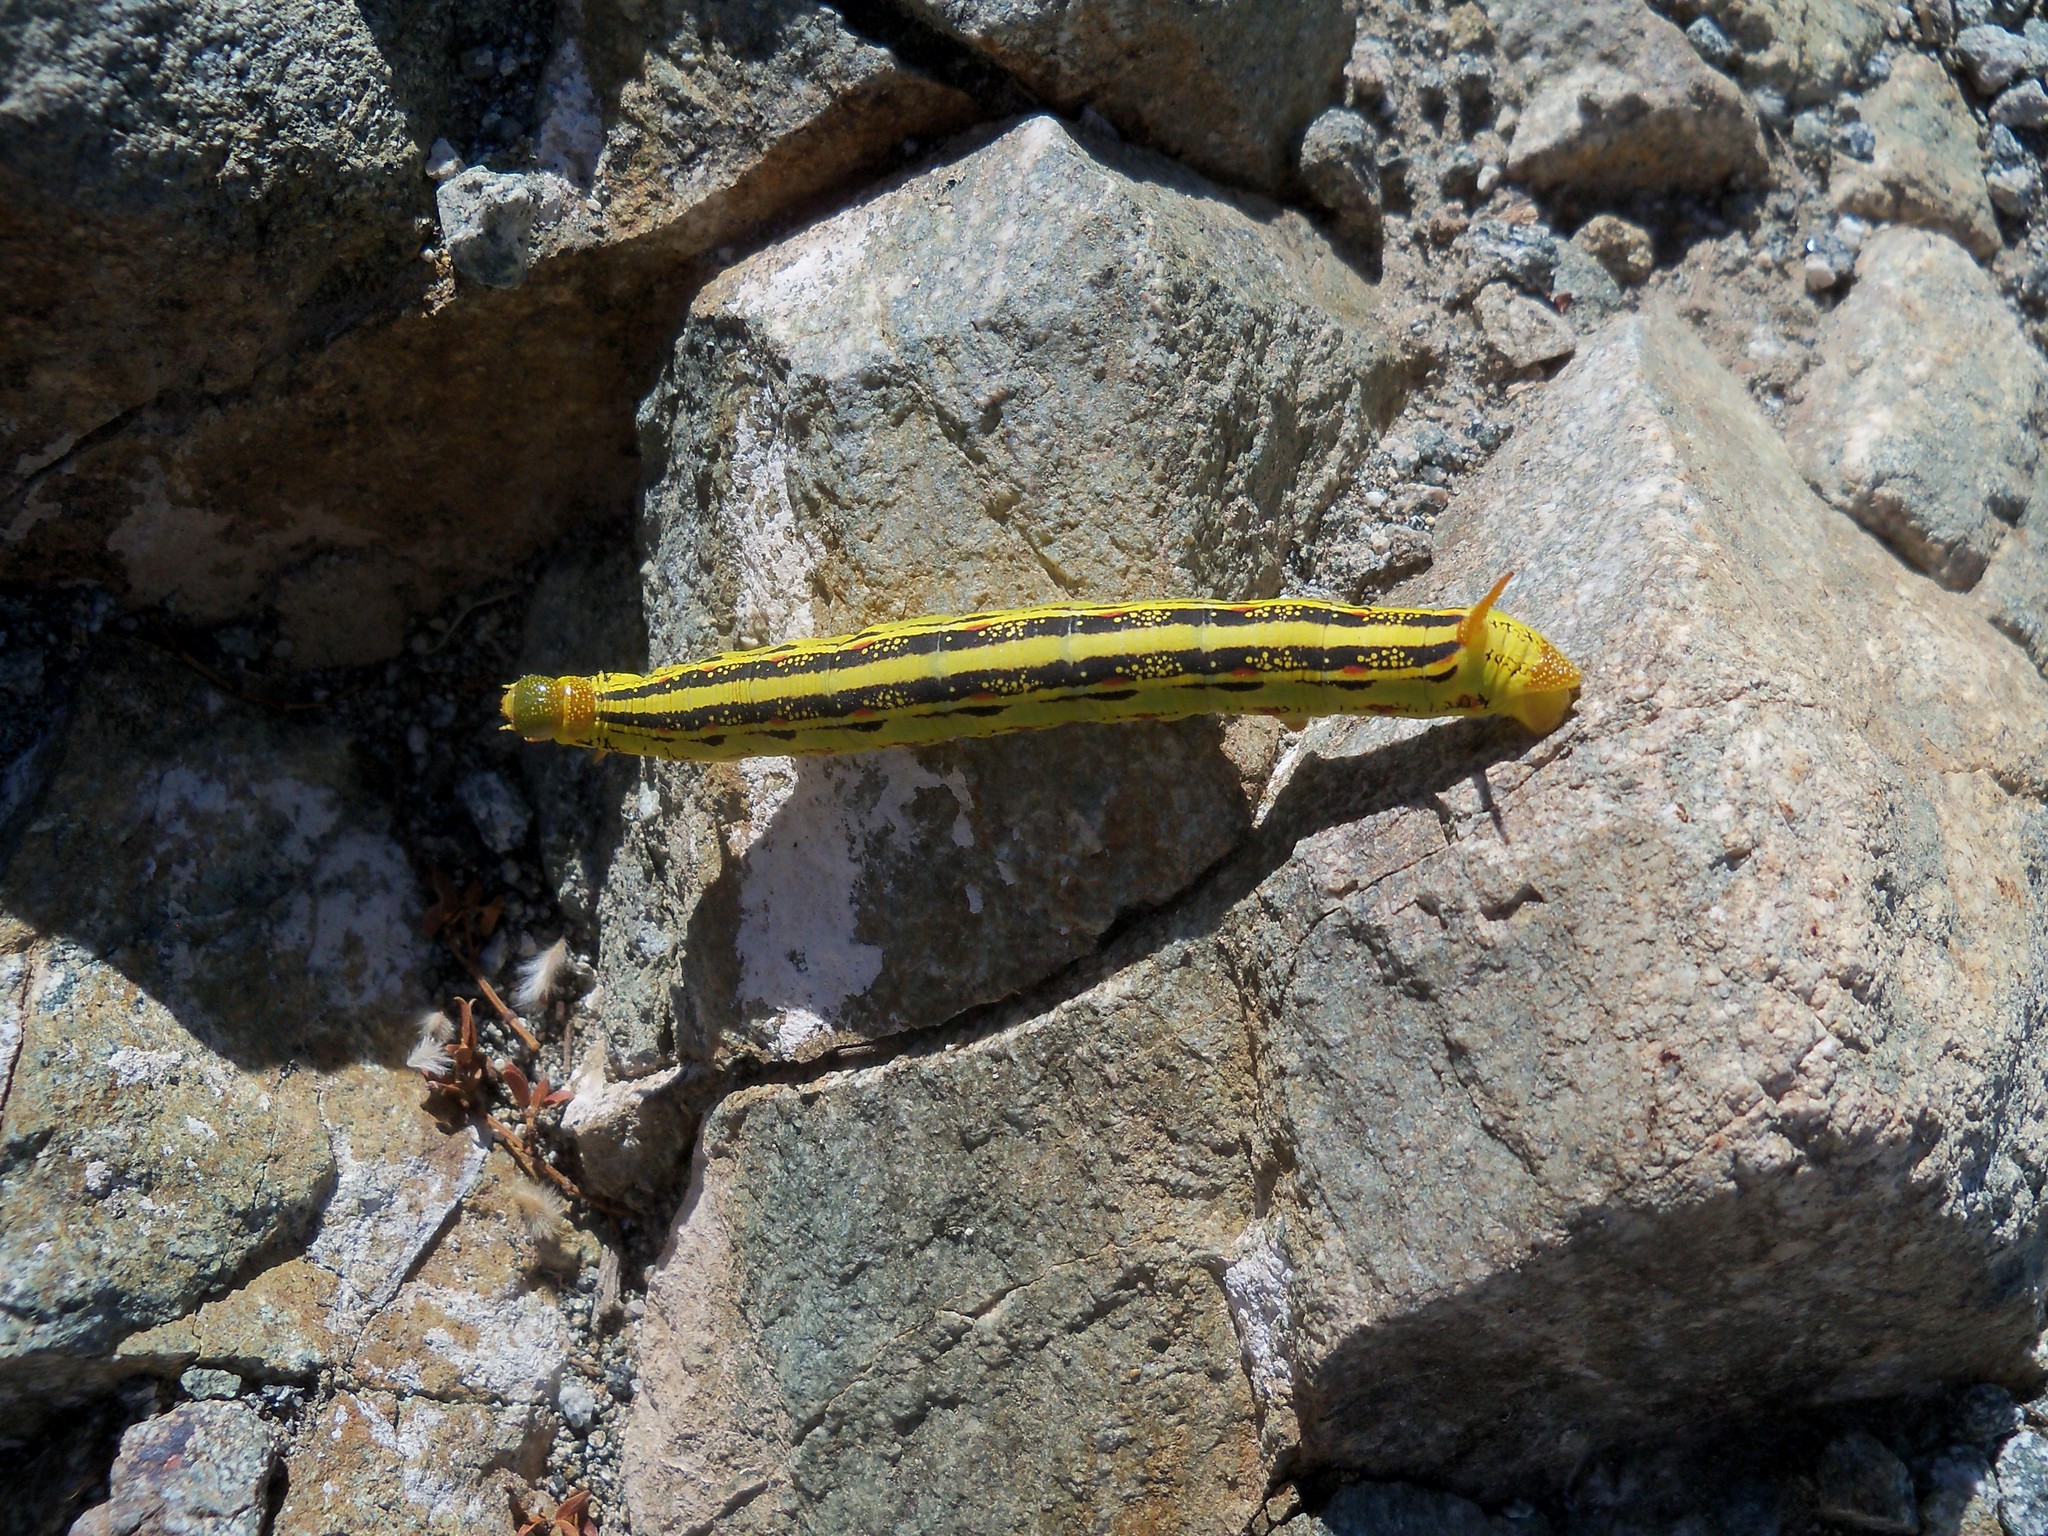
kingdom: Animalia
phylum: Arthropoda
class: Insecta
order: Lepidoptera
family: Sphingidae
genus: Hyles
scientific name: Hyles lineata
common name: White-lined sphinx
